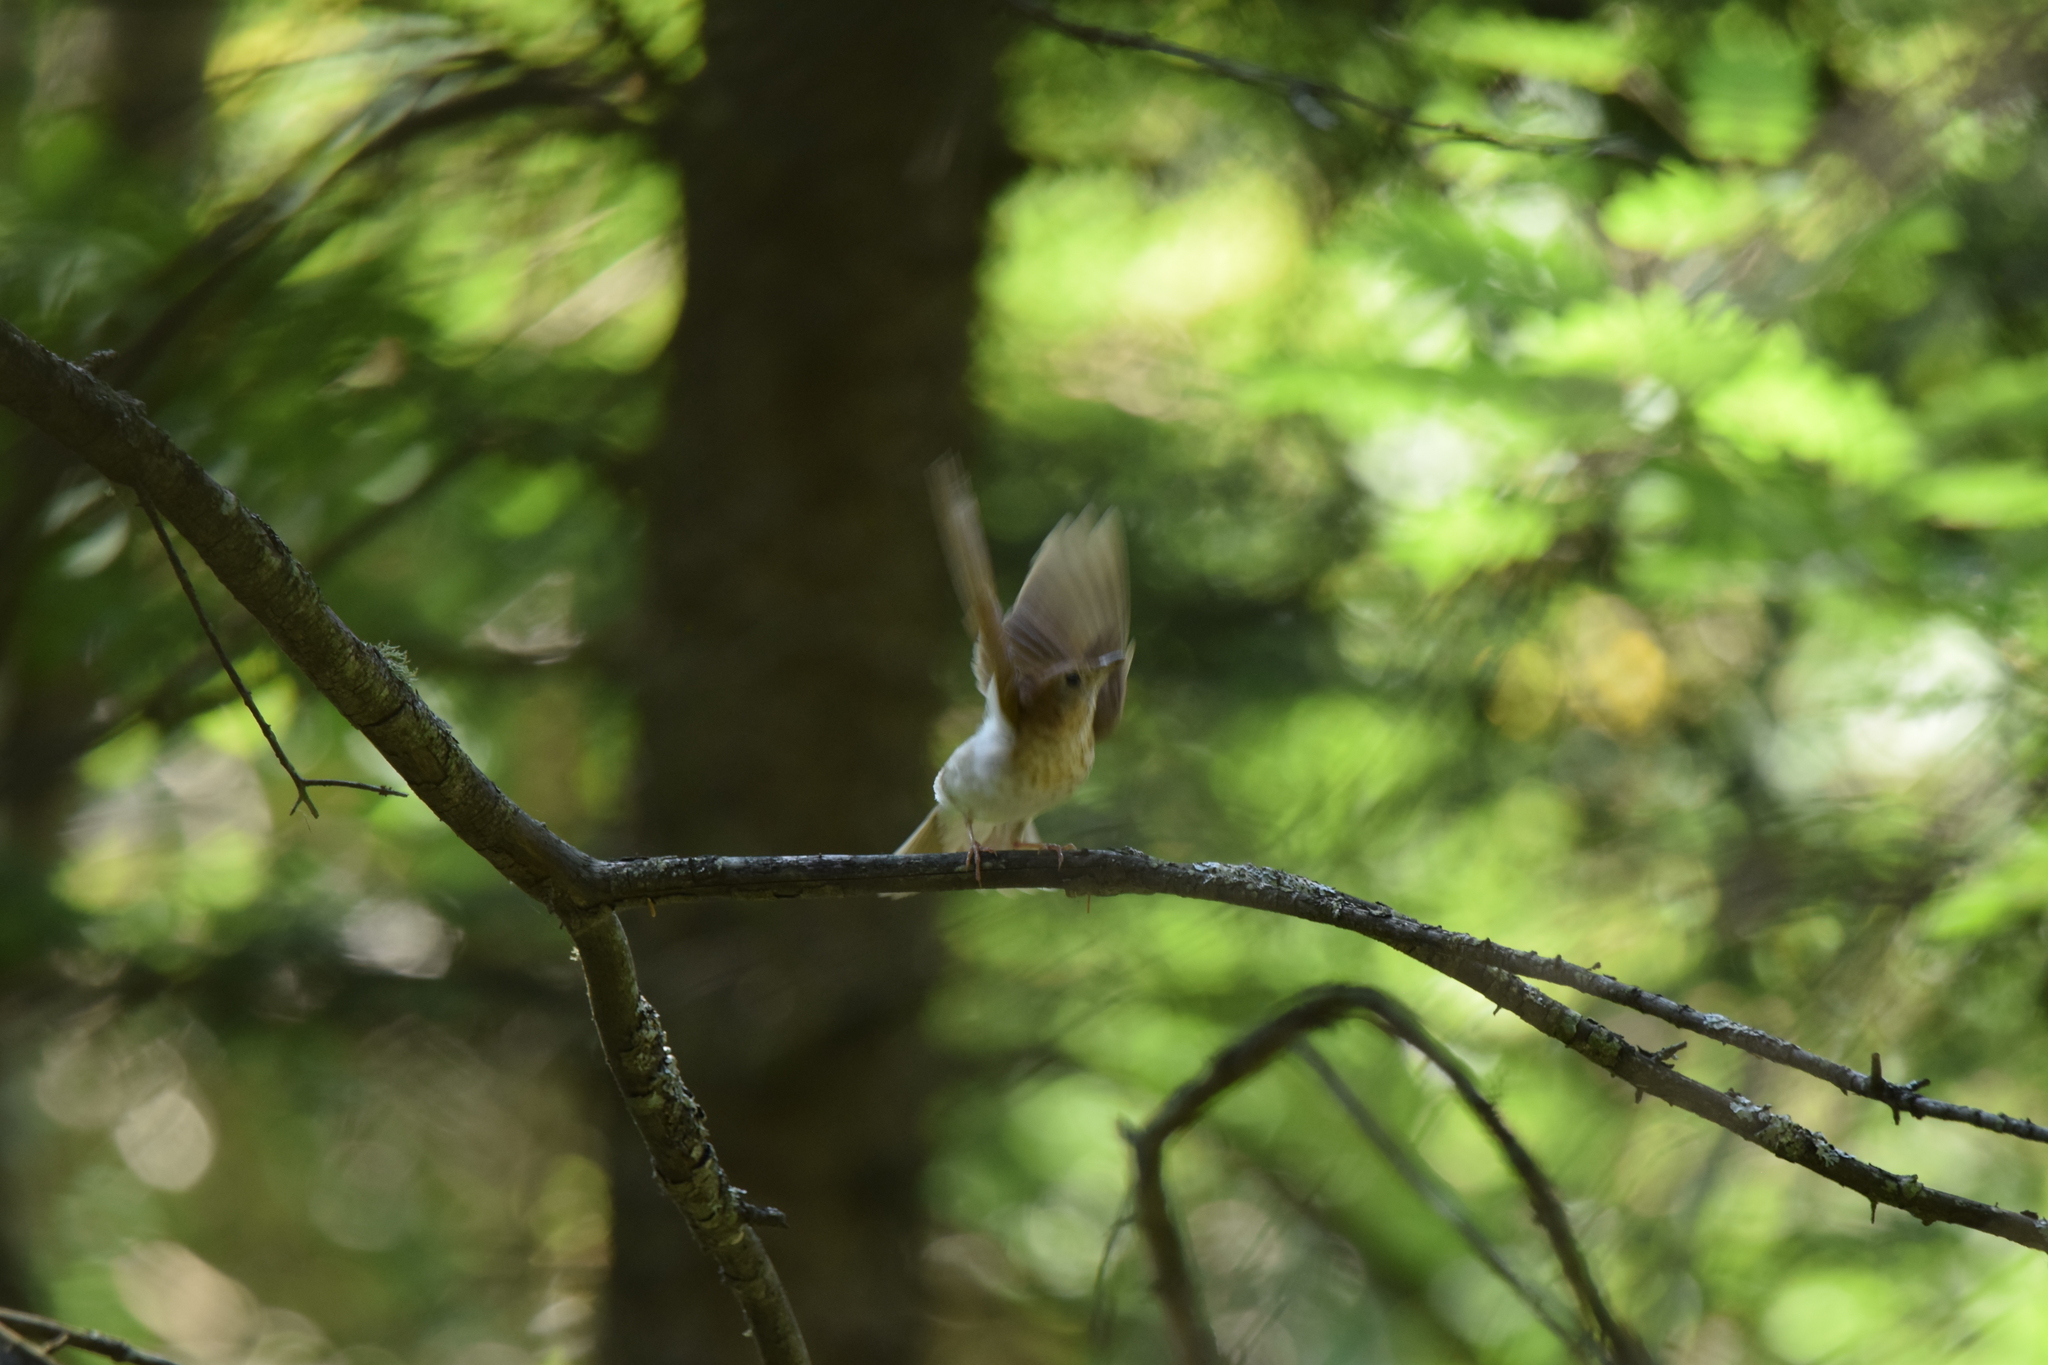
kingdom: Animalia
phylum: Chordata
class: Aves
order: Passeriformes
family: Turdidae
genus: Catharus
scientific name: Catharus fuscescens
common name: Veery
